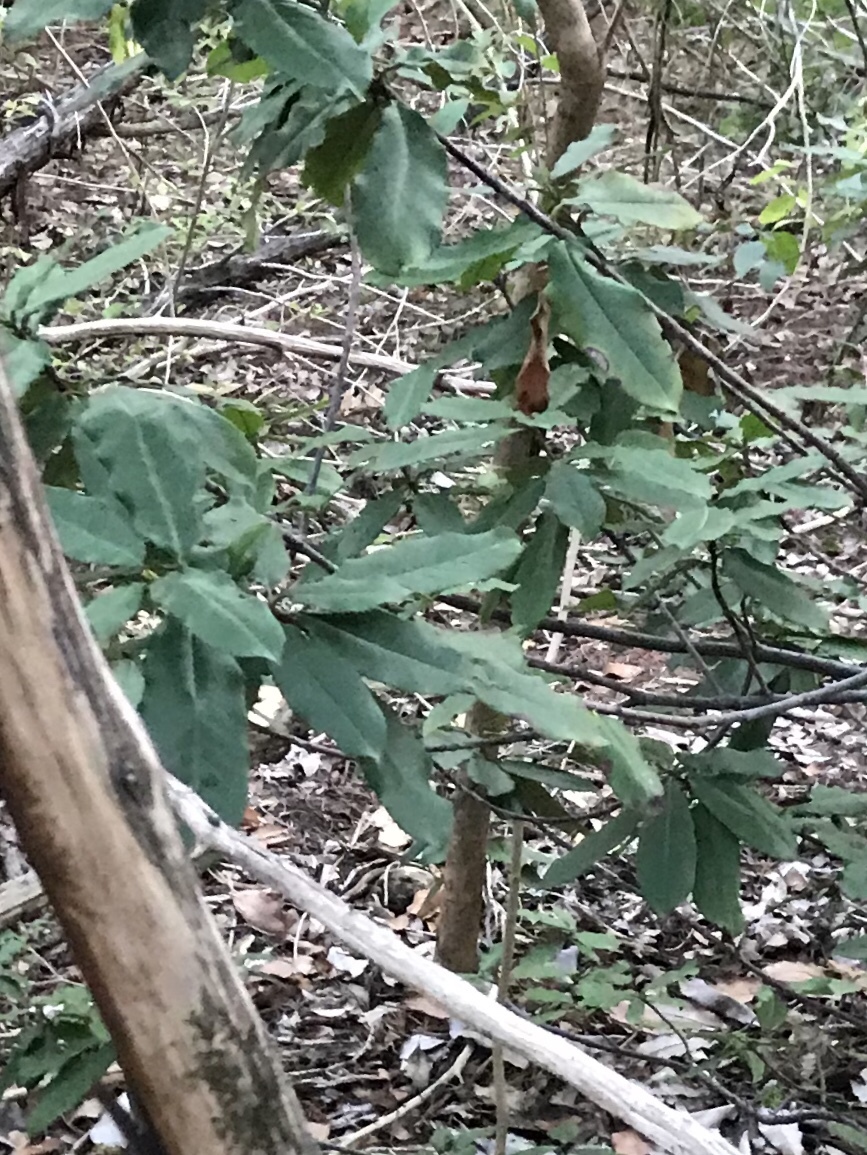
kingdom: Plantae
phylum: Tracheophyta
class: Magnoliopsida
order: Rosales
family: Rosaceae
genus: Photinia
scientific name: Photinia serratifolia
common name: Taiwanese photinia
